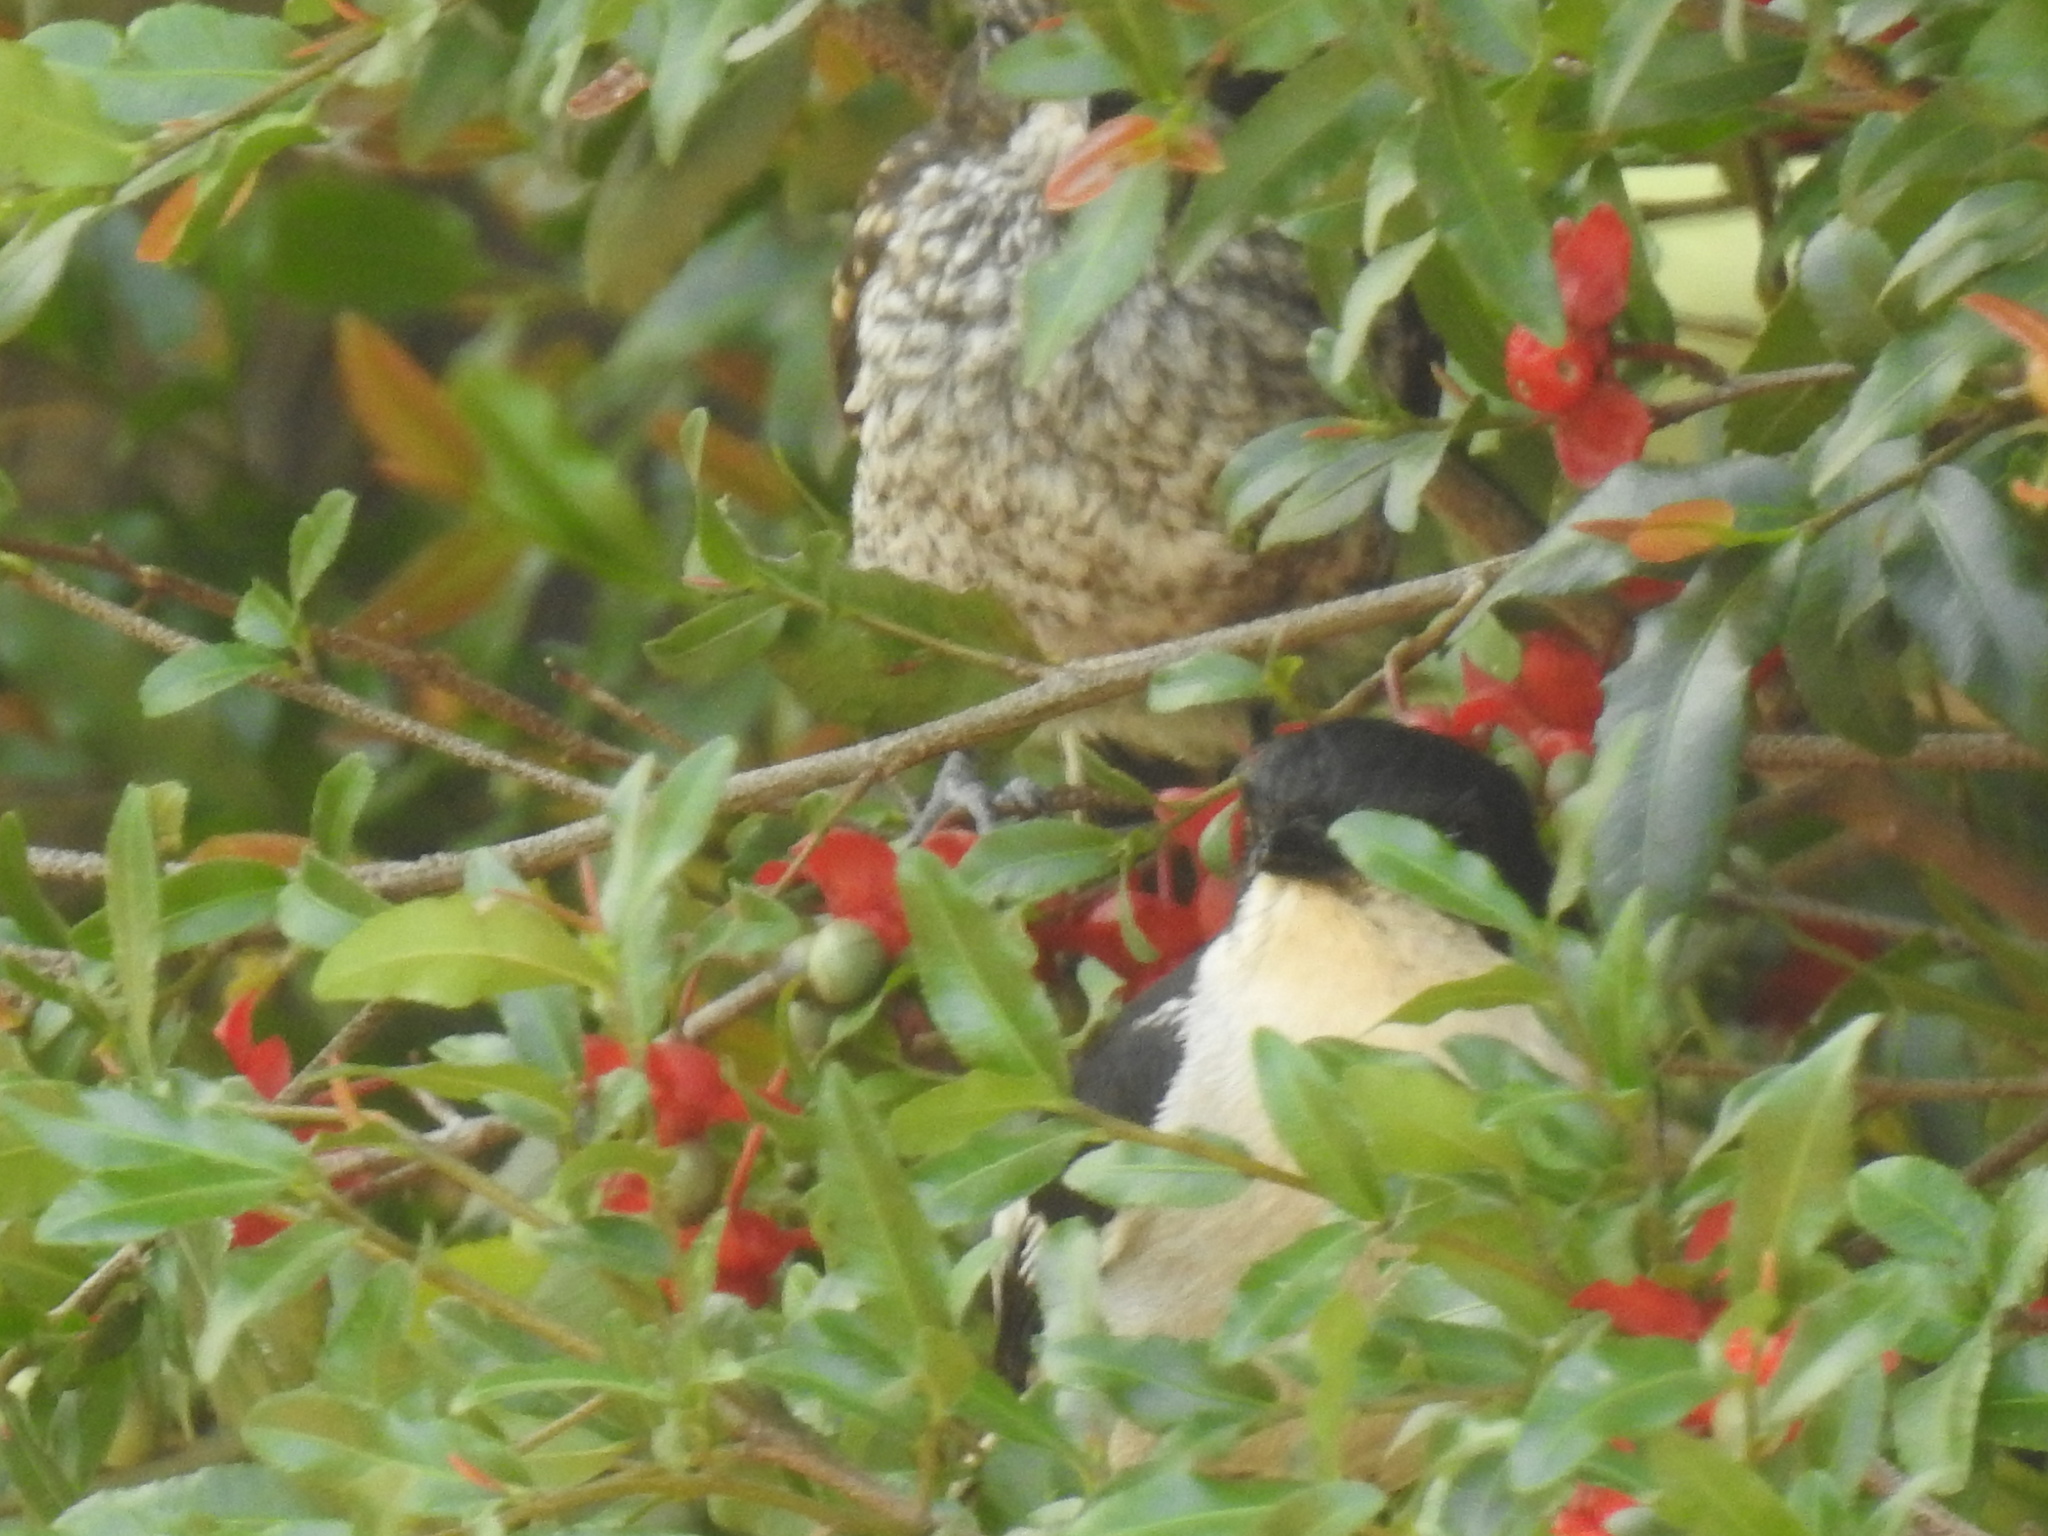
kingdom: Animalia
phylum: Chordata
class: Aves
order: Passeriformes
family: Muscicapidae
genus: Sigelus
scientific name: Sigelus silens
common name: Fiscal flycatcher
